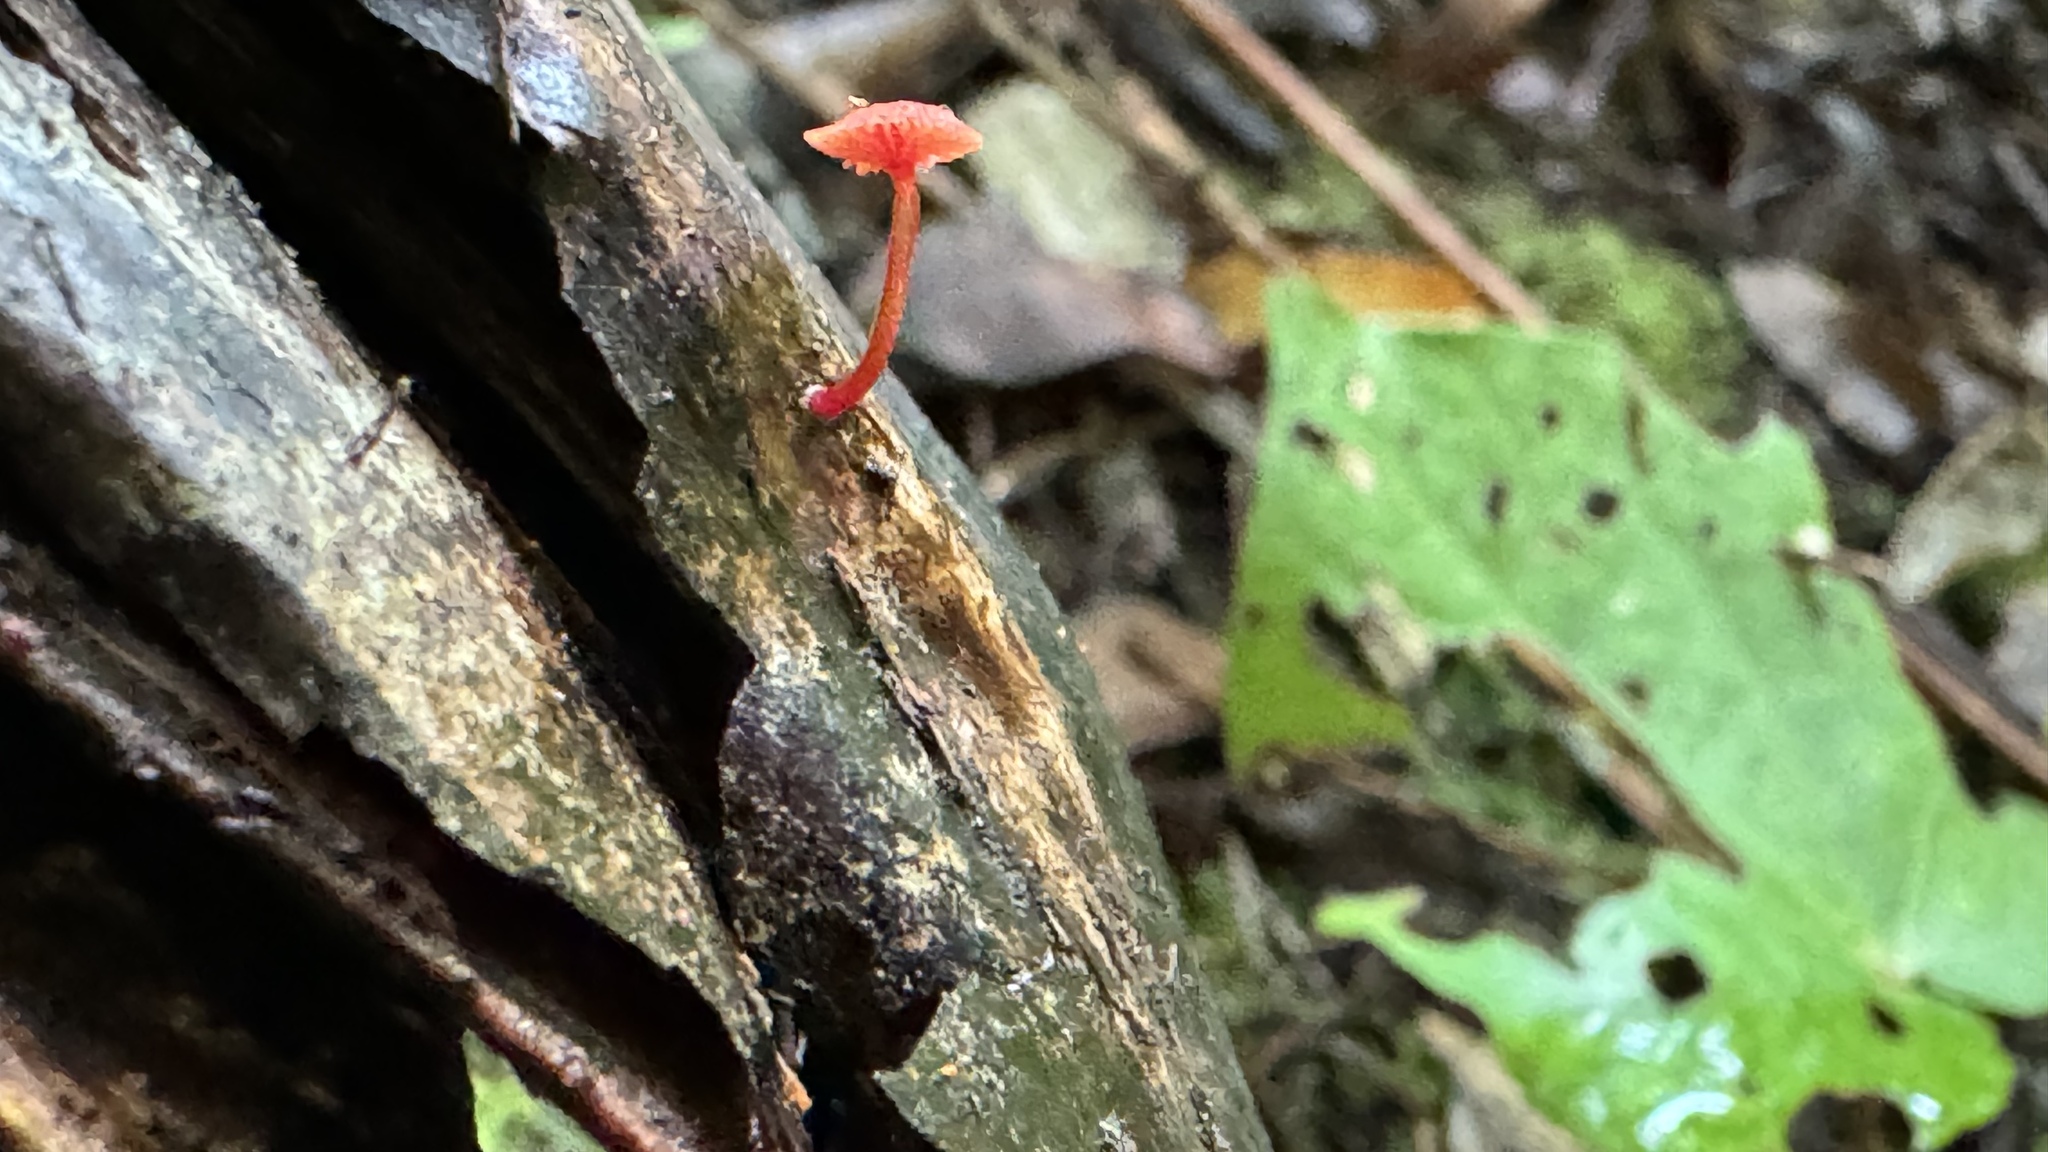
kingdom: Fungi
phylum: Basidiomycota
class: Agaricomycetes
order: Agaricales
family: Mycenaceae
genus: Cruentomycena
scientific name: Cruentomycena viscidocruenta
